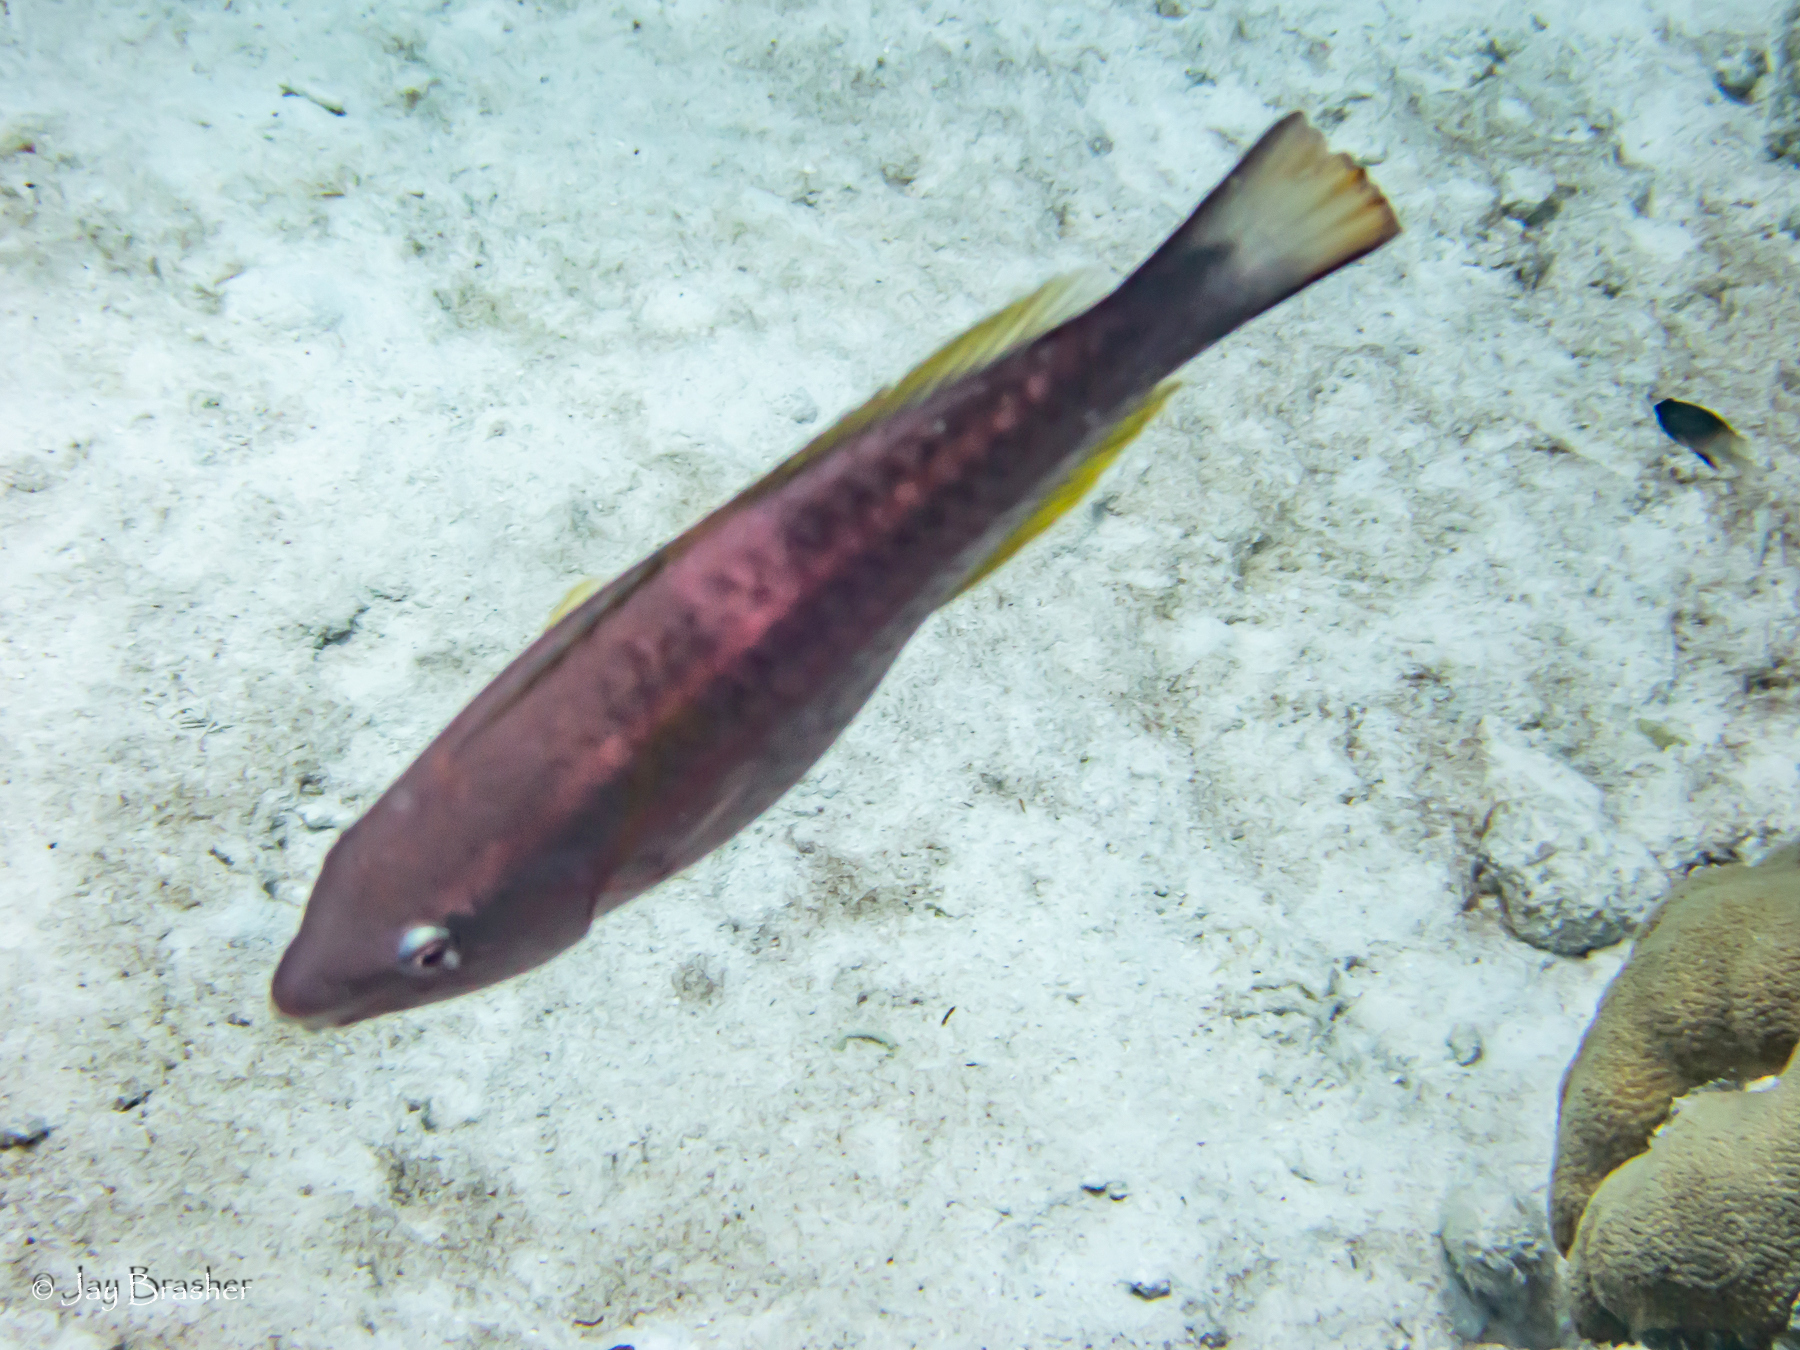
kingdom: Animalia
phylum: Chordata
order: Perciformes
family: Scaridae
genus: Scarus
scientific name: Scarus taeniopterus
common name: Princess parrotfish
